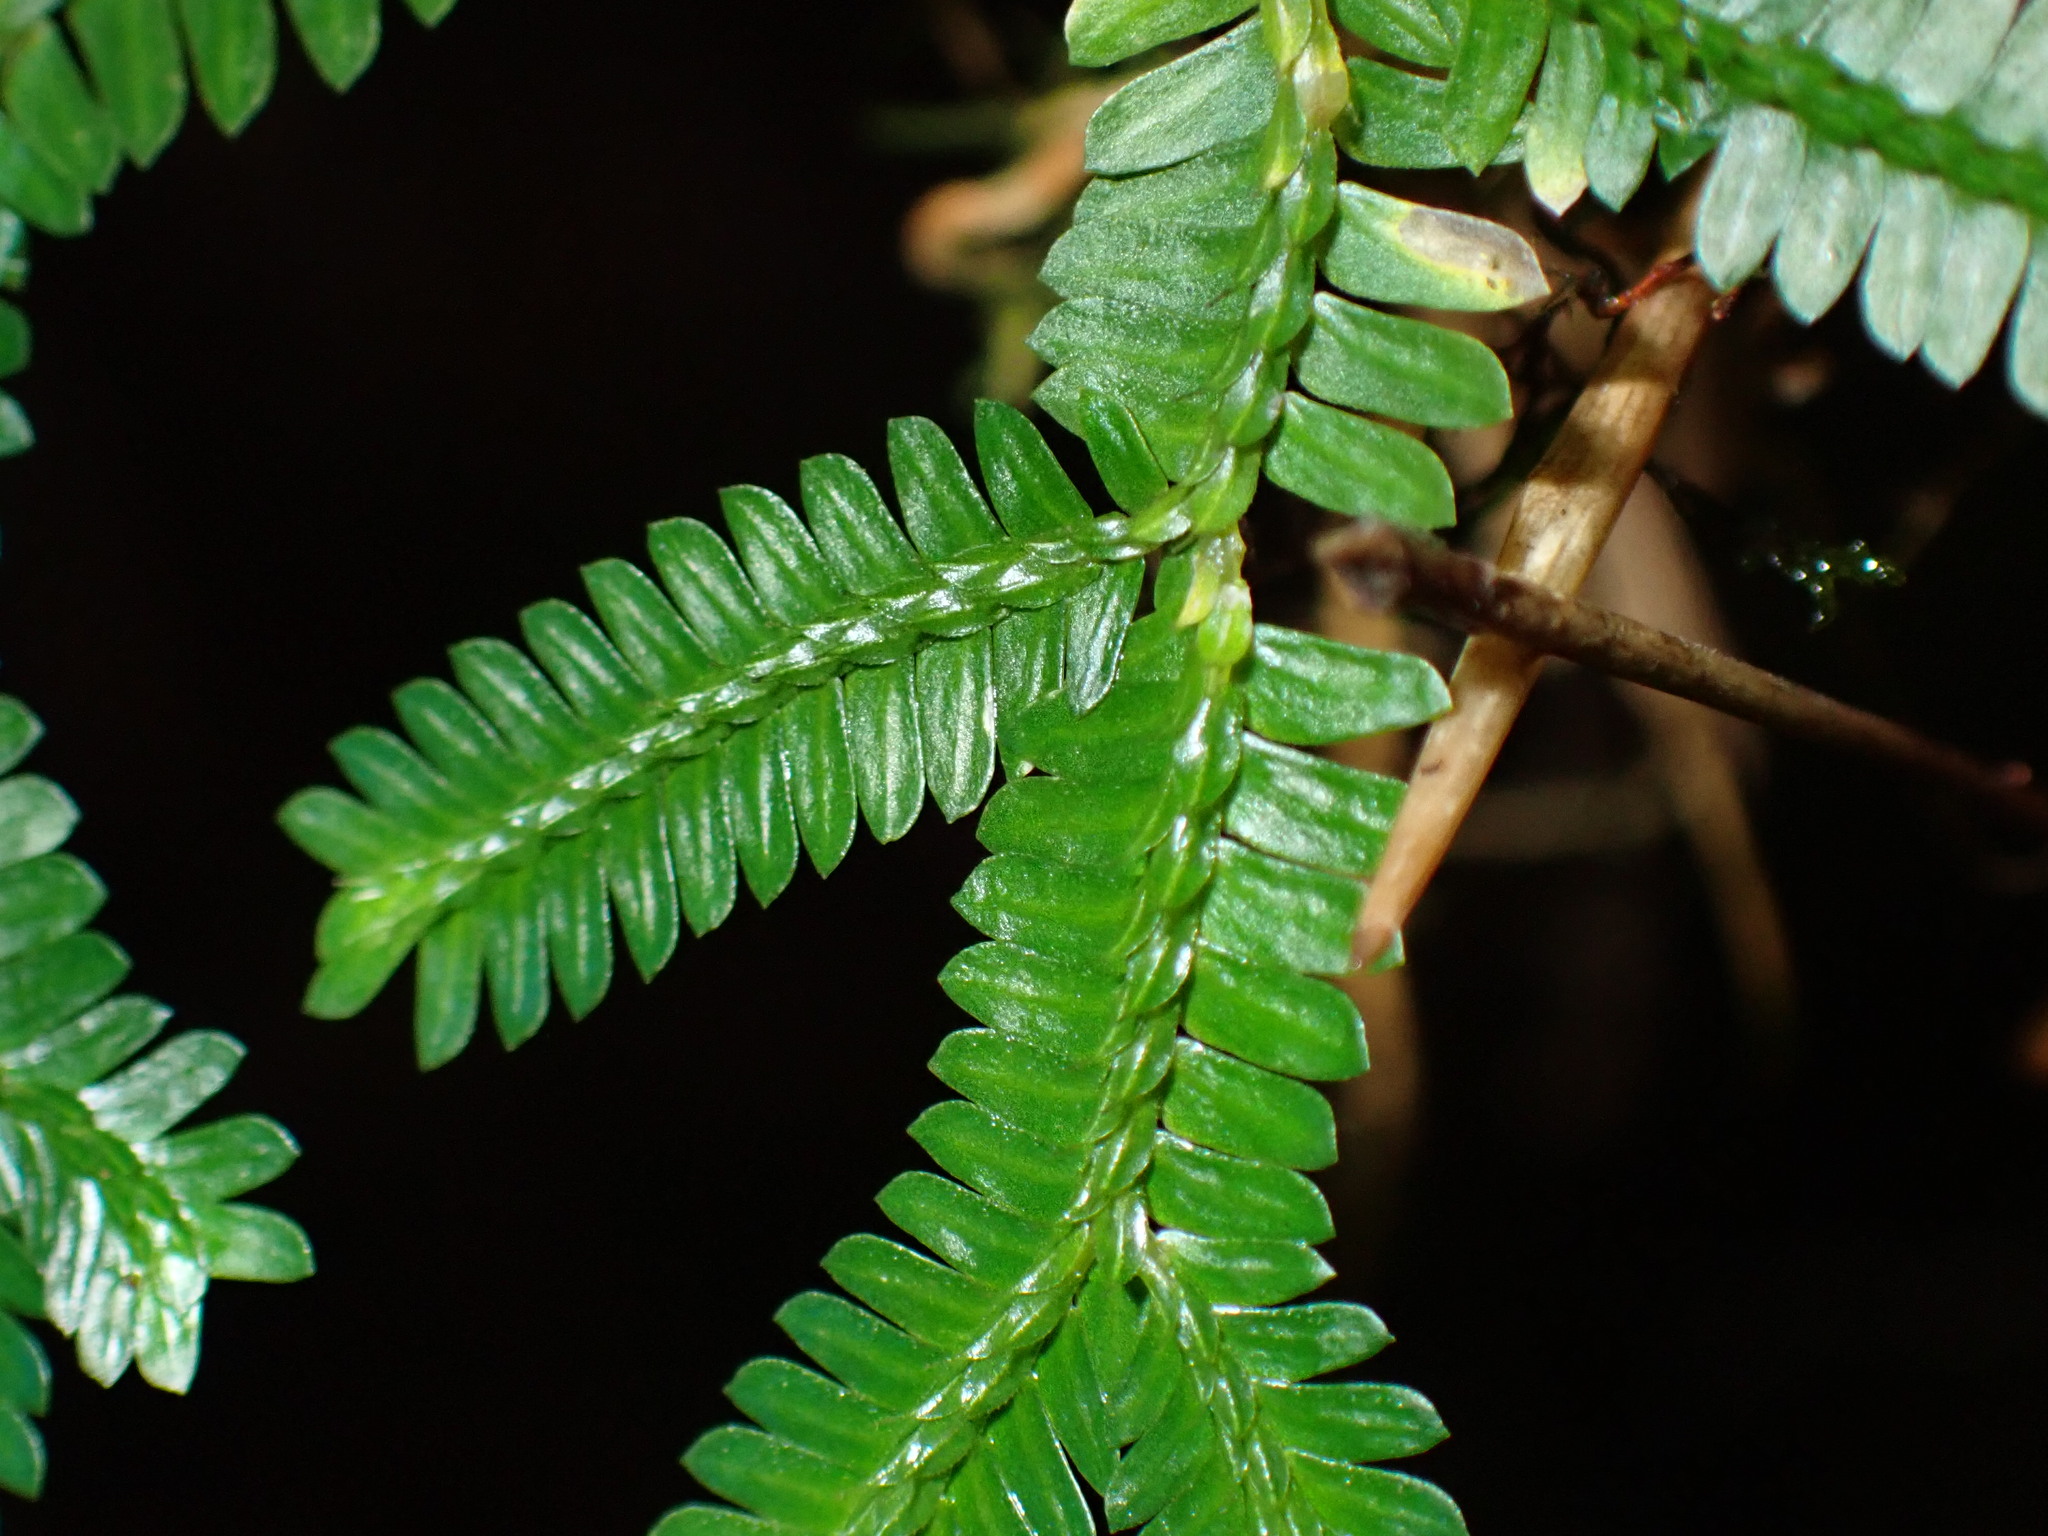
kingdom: Plantae
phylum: Tracheophyta
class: Lycopodiopsida
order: Selaginellales
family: Selaginellaceae
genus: Selaginella
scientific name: Selaginella doederleinii
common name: Greater selaginella
